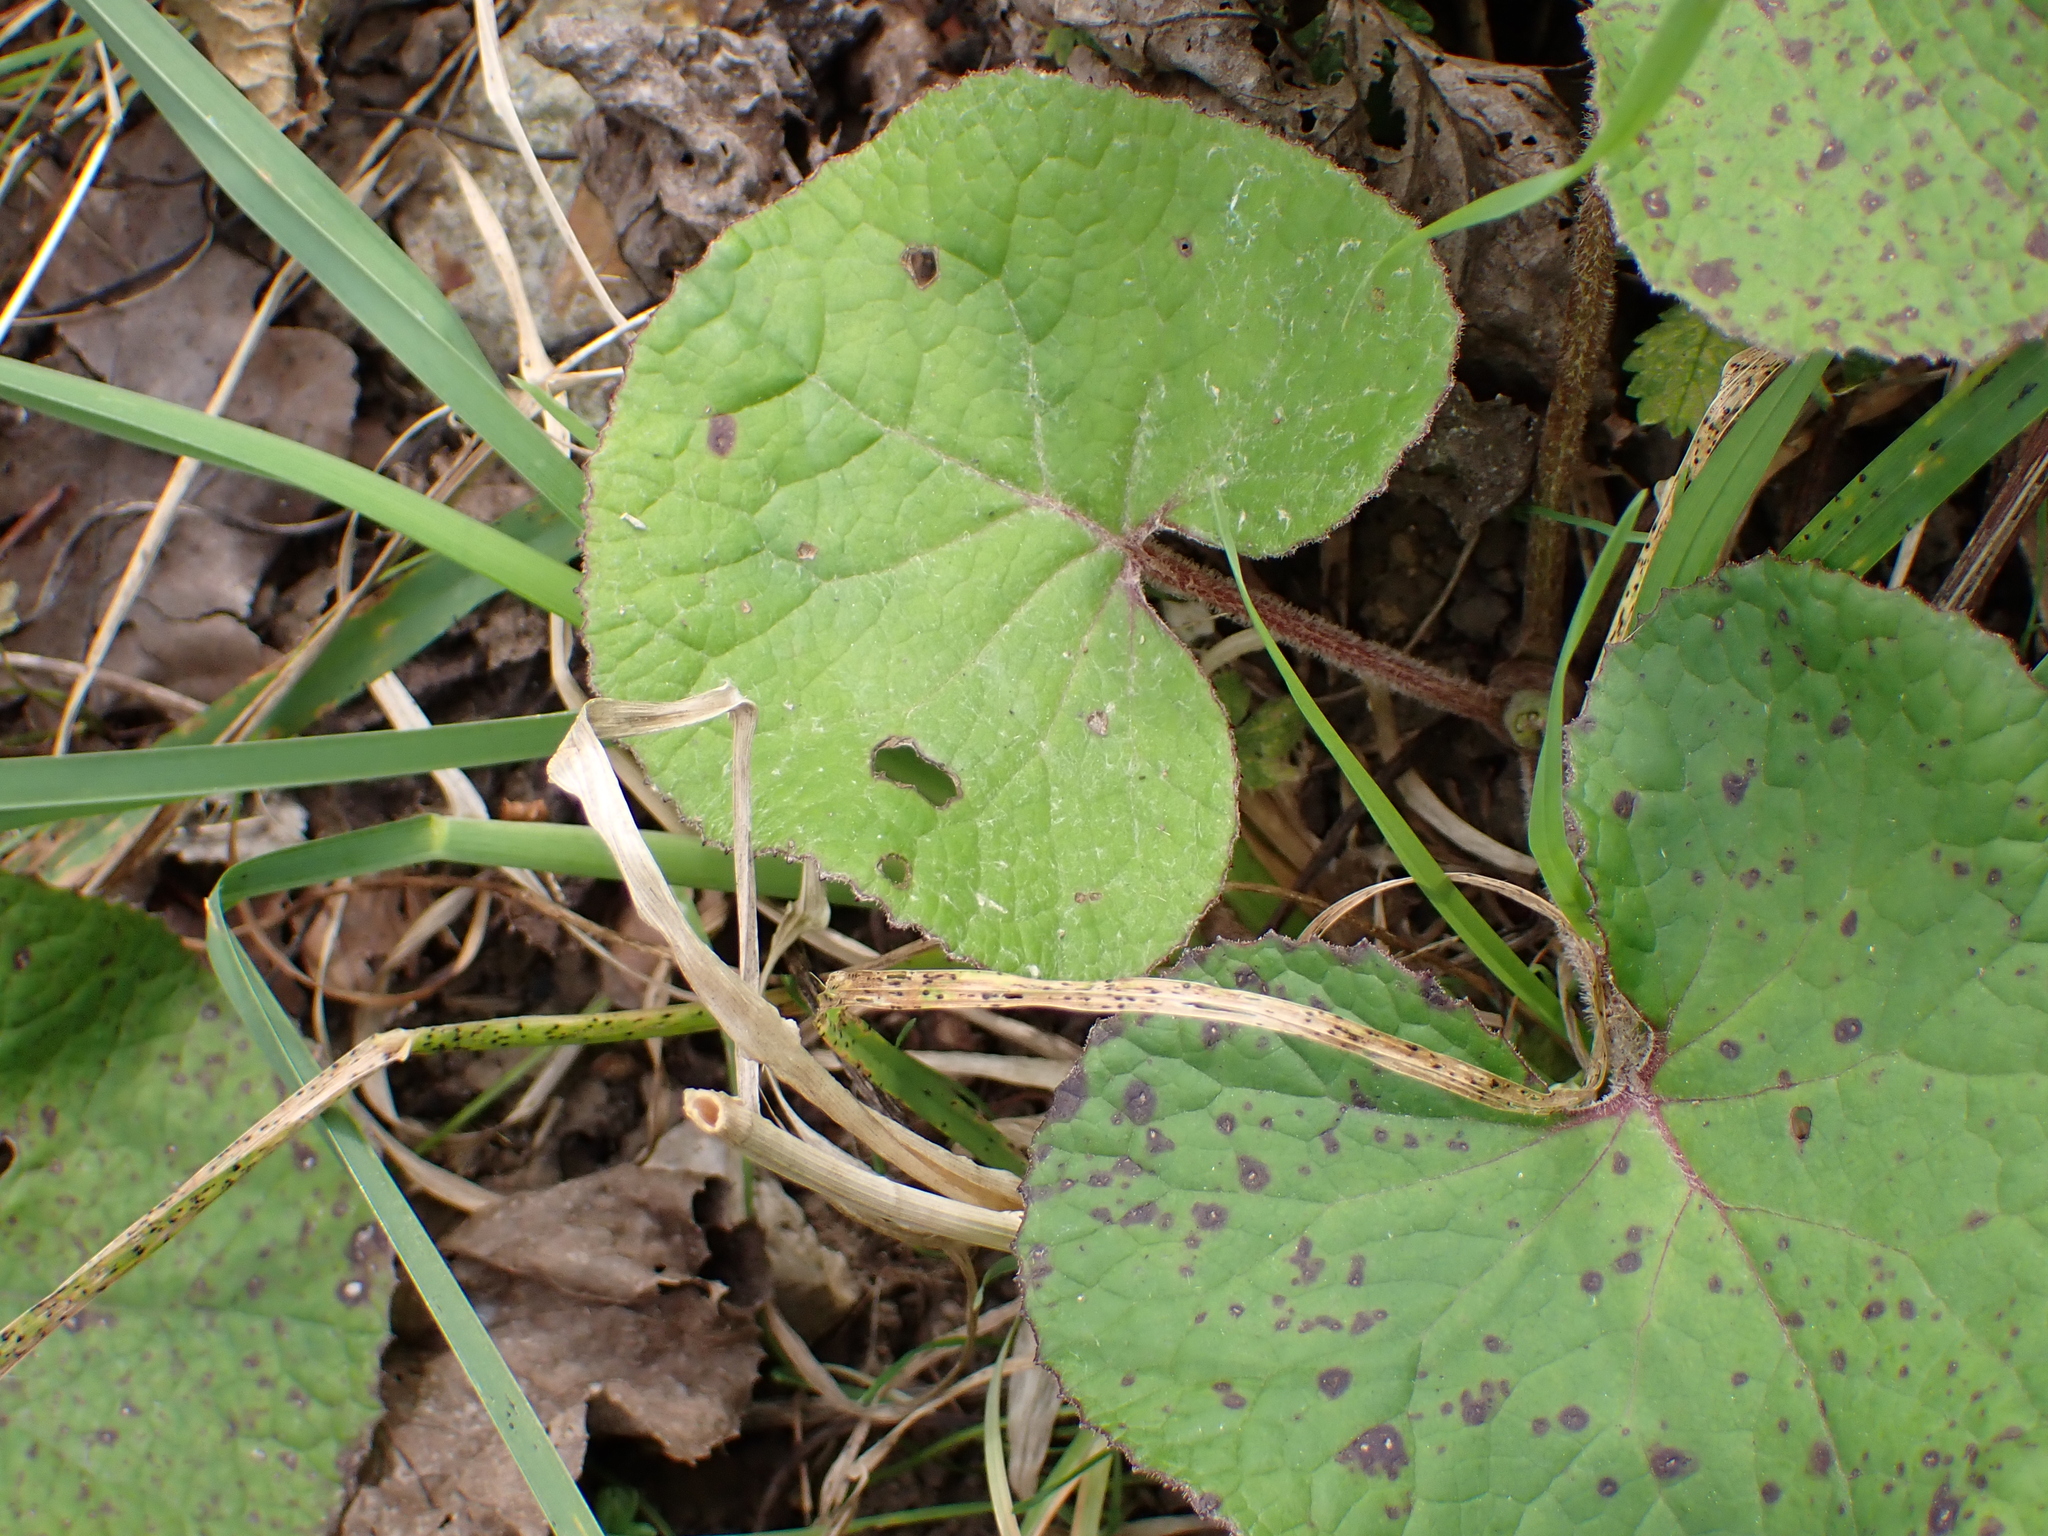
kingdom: Plantae
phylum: Tracheophyta
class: Magnoliopsida
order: Asterales
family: Asteraceae
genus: Petasites
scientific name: Petasites pyrenaicus
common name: Winter heliotrope
